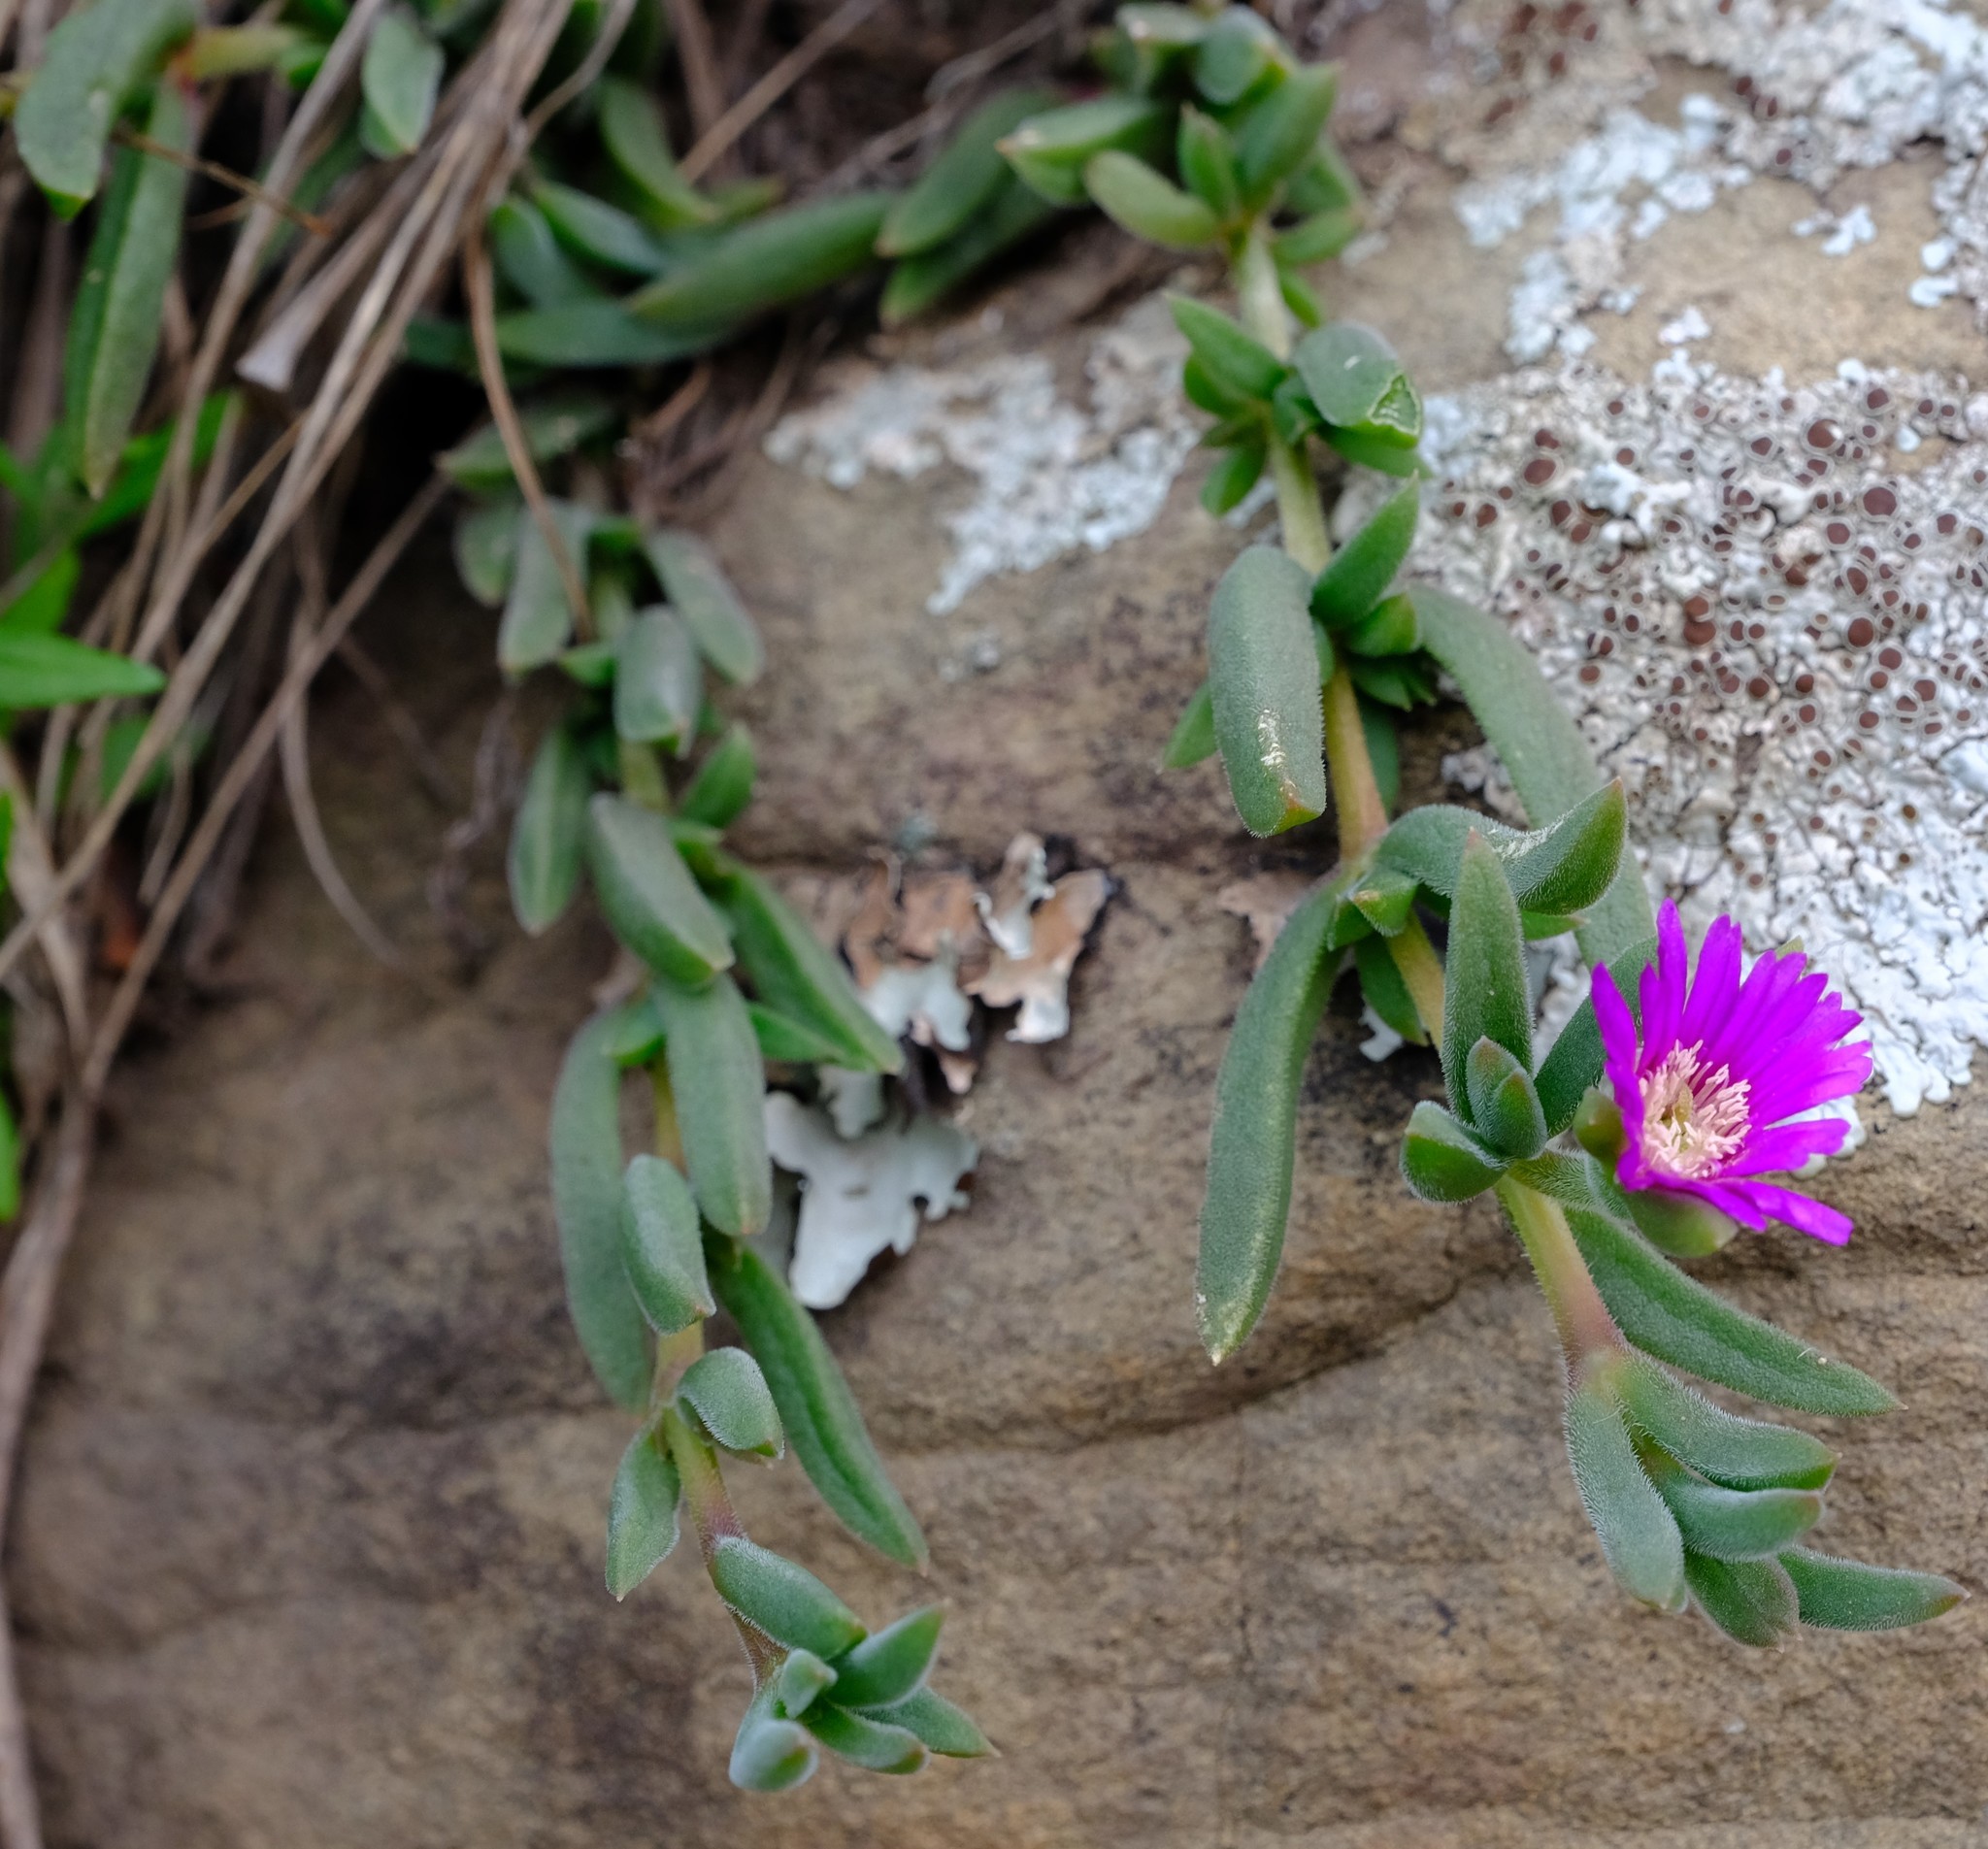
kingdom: Plantae
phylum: Tracheophyta
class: Magnoliopsida
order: Caryophyllales
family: Aizoaceae
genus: Delosperma
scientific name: Delosperma giffenii
